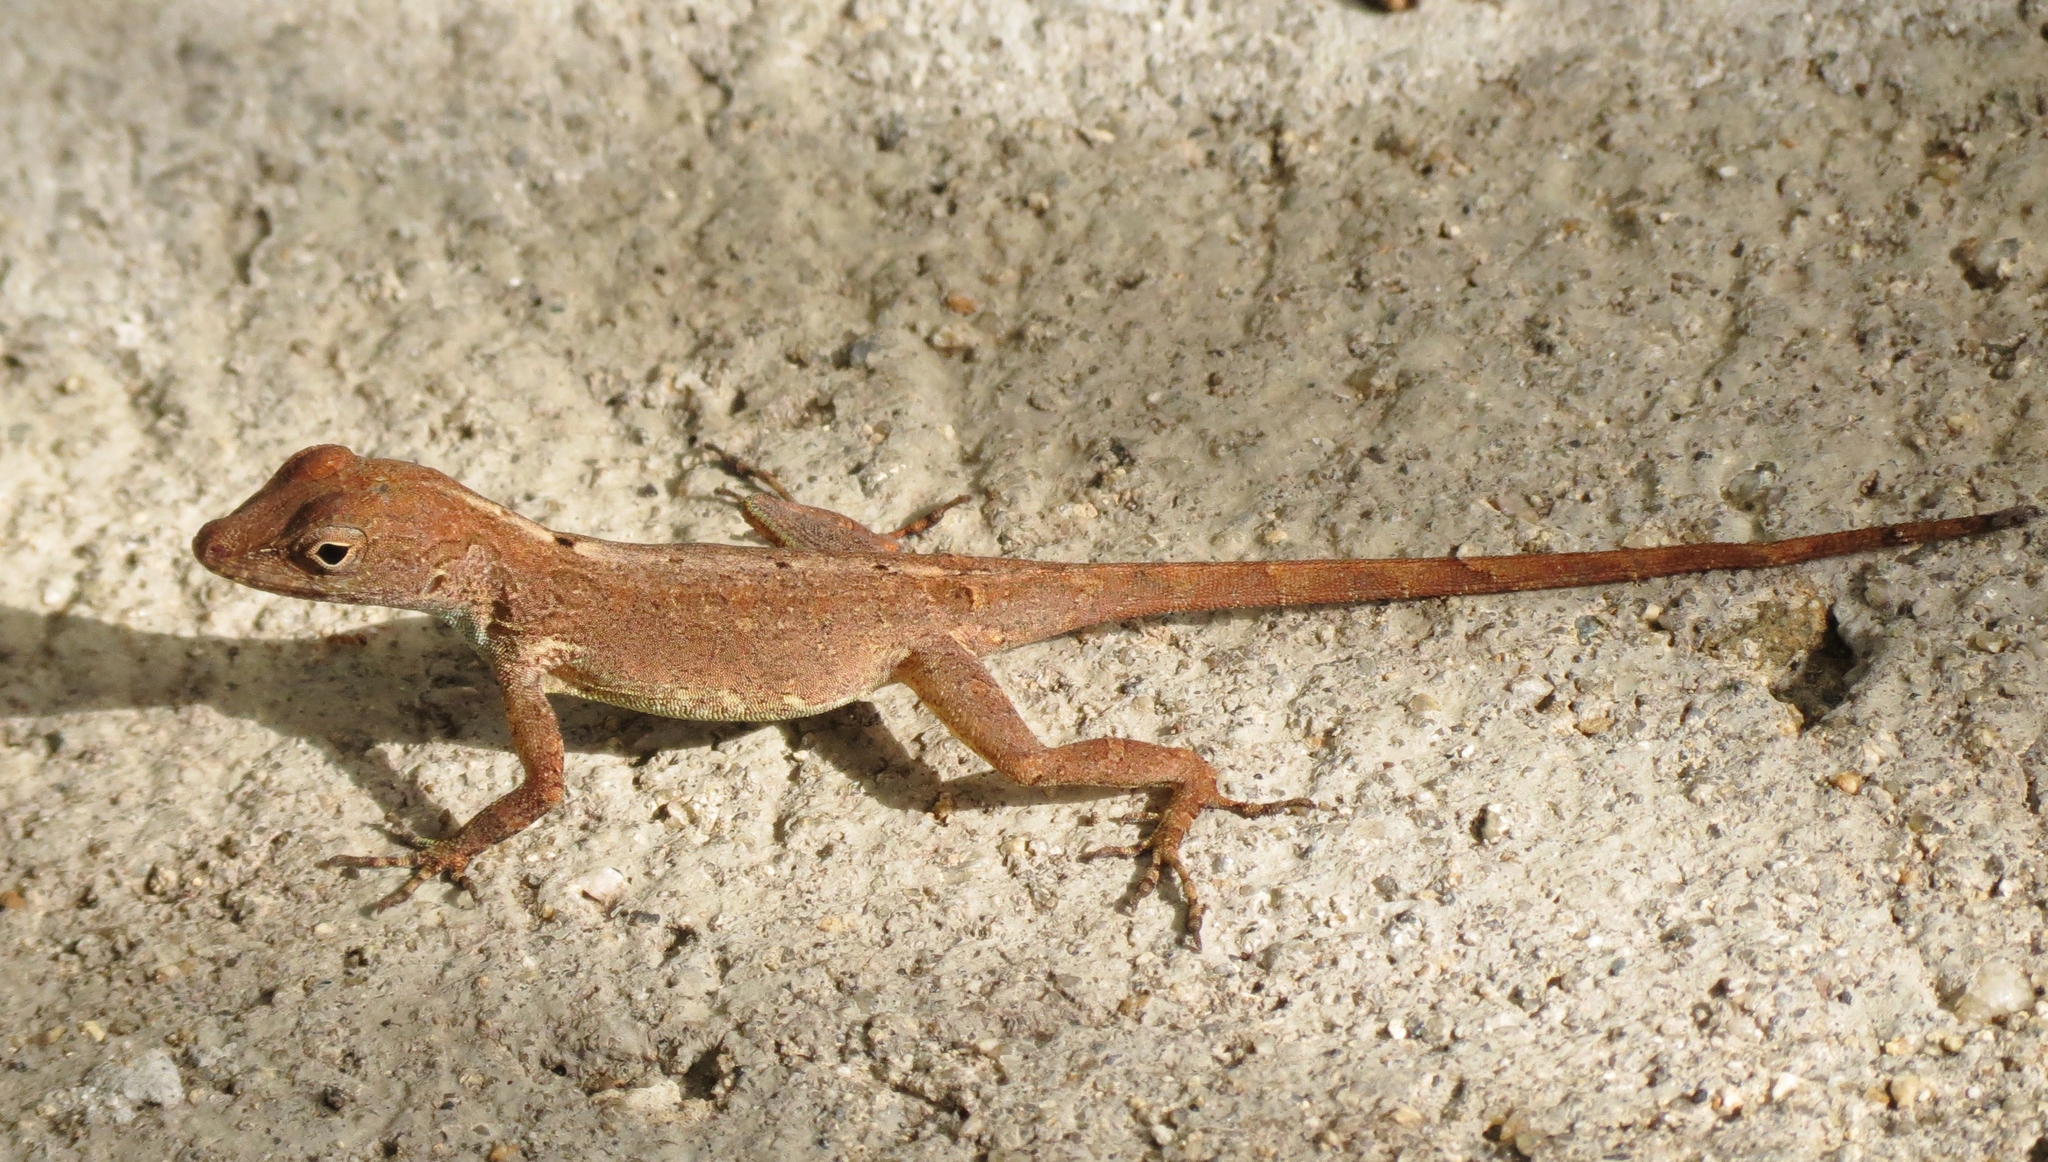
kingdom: Animalia
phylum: Chordata
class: Squamata
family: Dactyloidae
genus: Anolis
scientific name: Anolis cristatellus
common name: Crested anole
